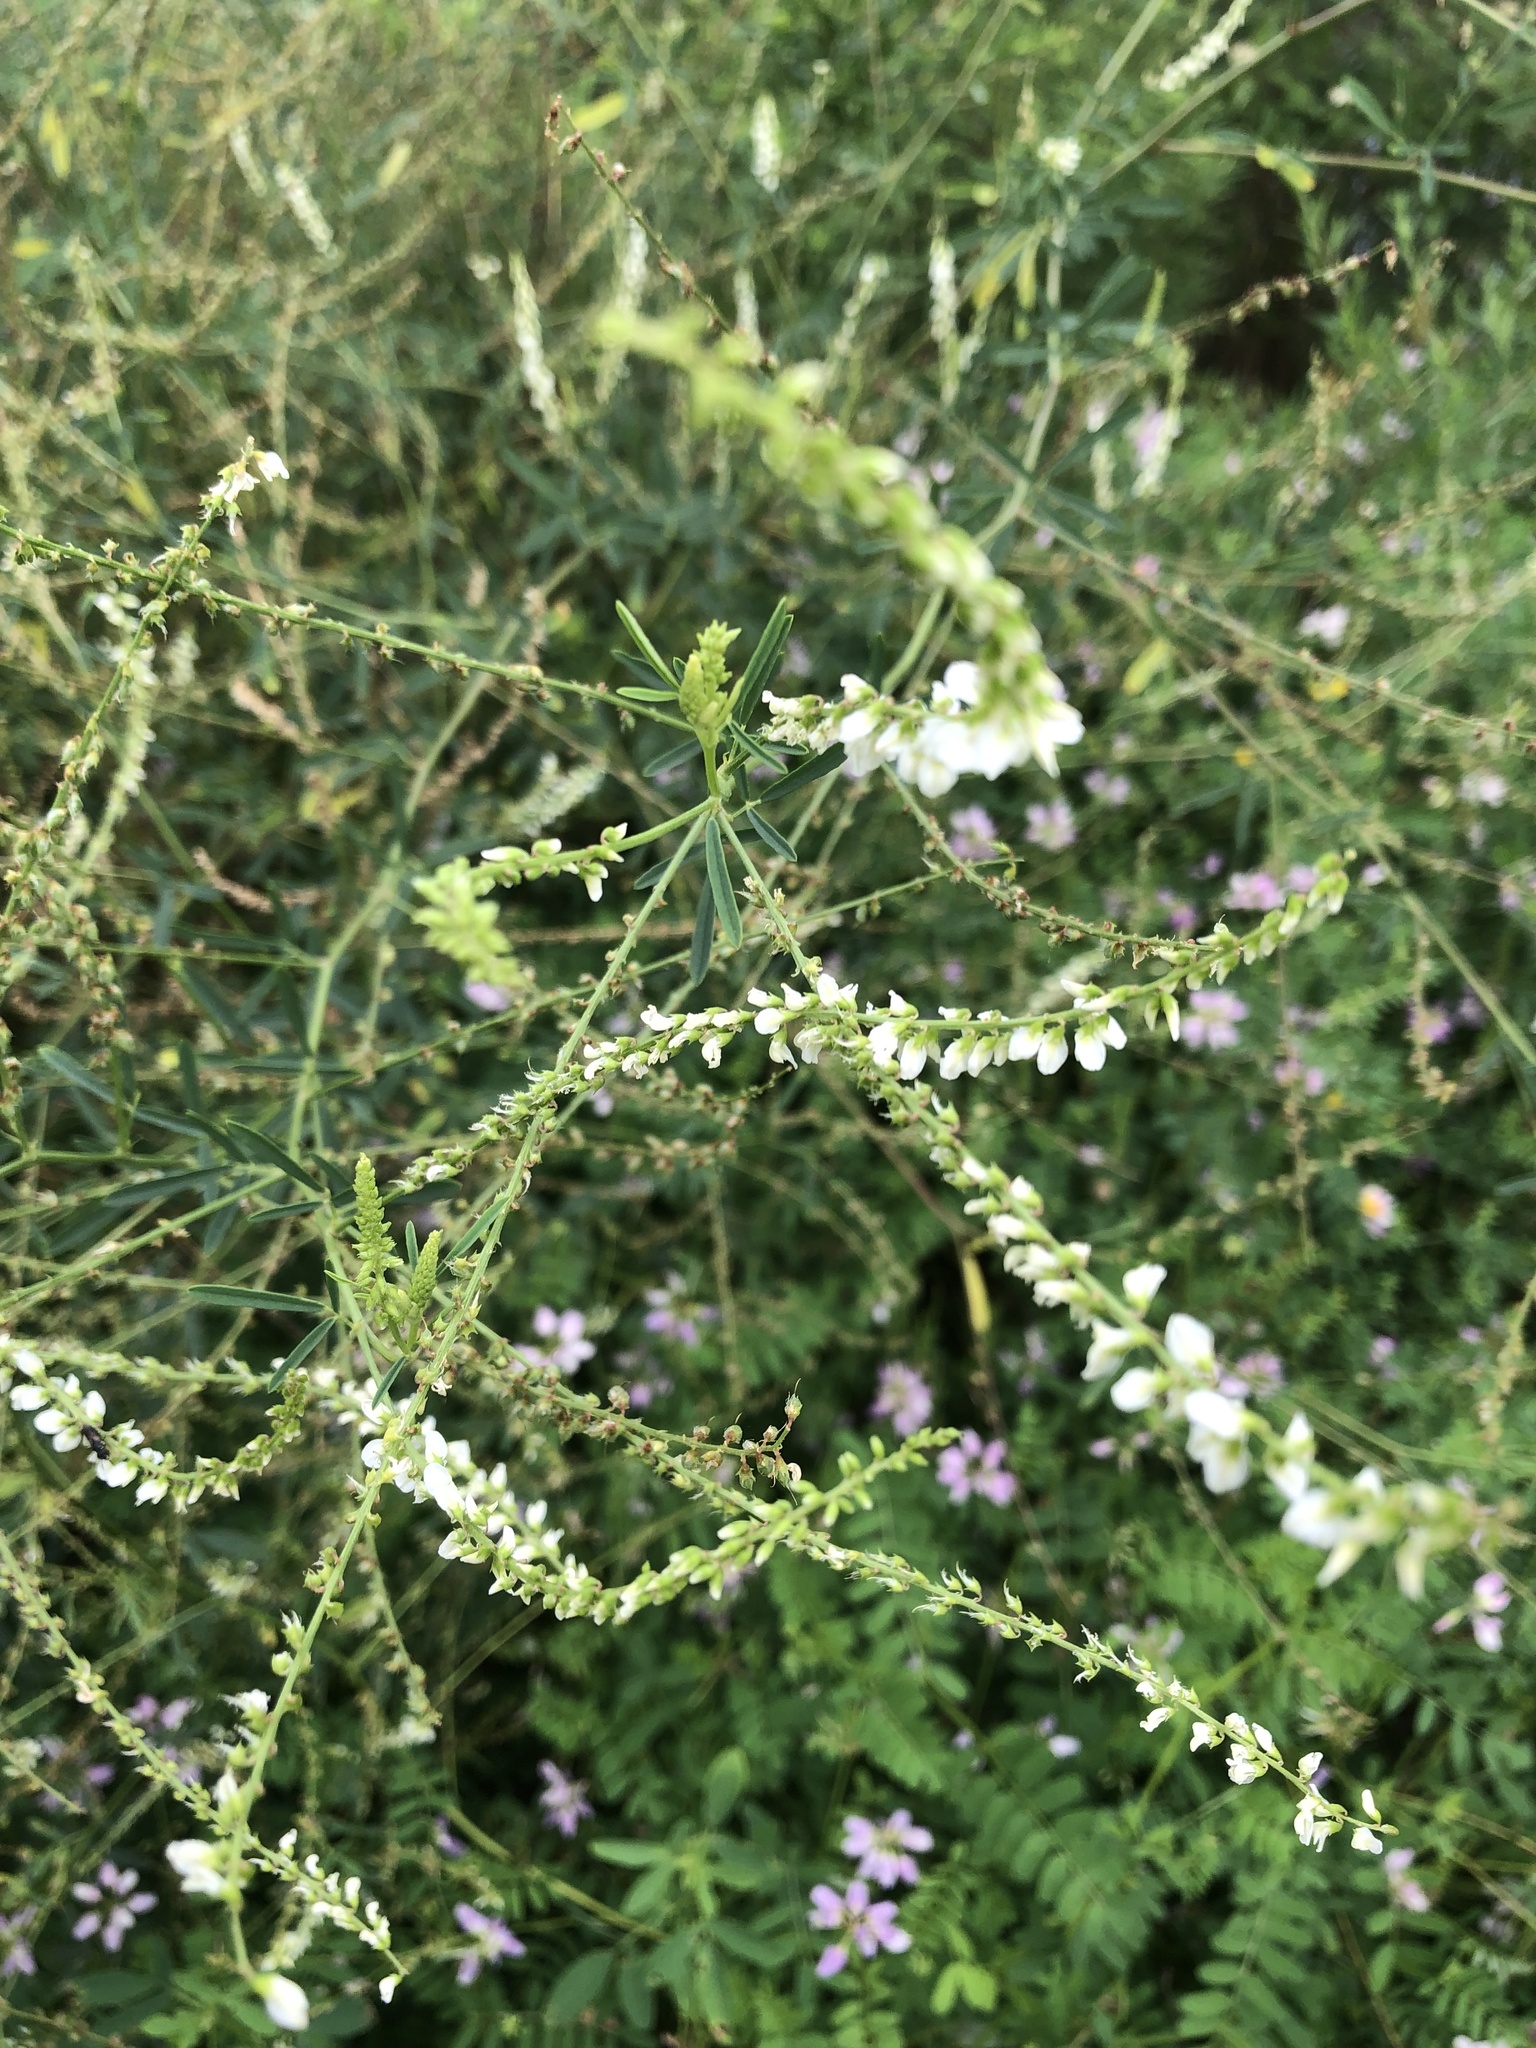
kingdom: Plantae
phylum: Tracheophyta
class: Magnoliopsida
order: Fabales
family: Fabaceae
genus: Melilotus
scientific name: Melilotus albus
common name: White melilot
